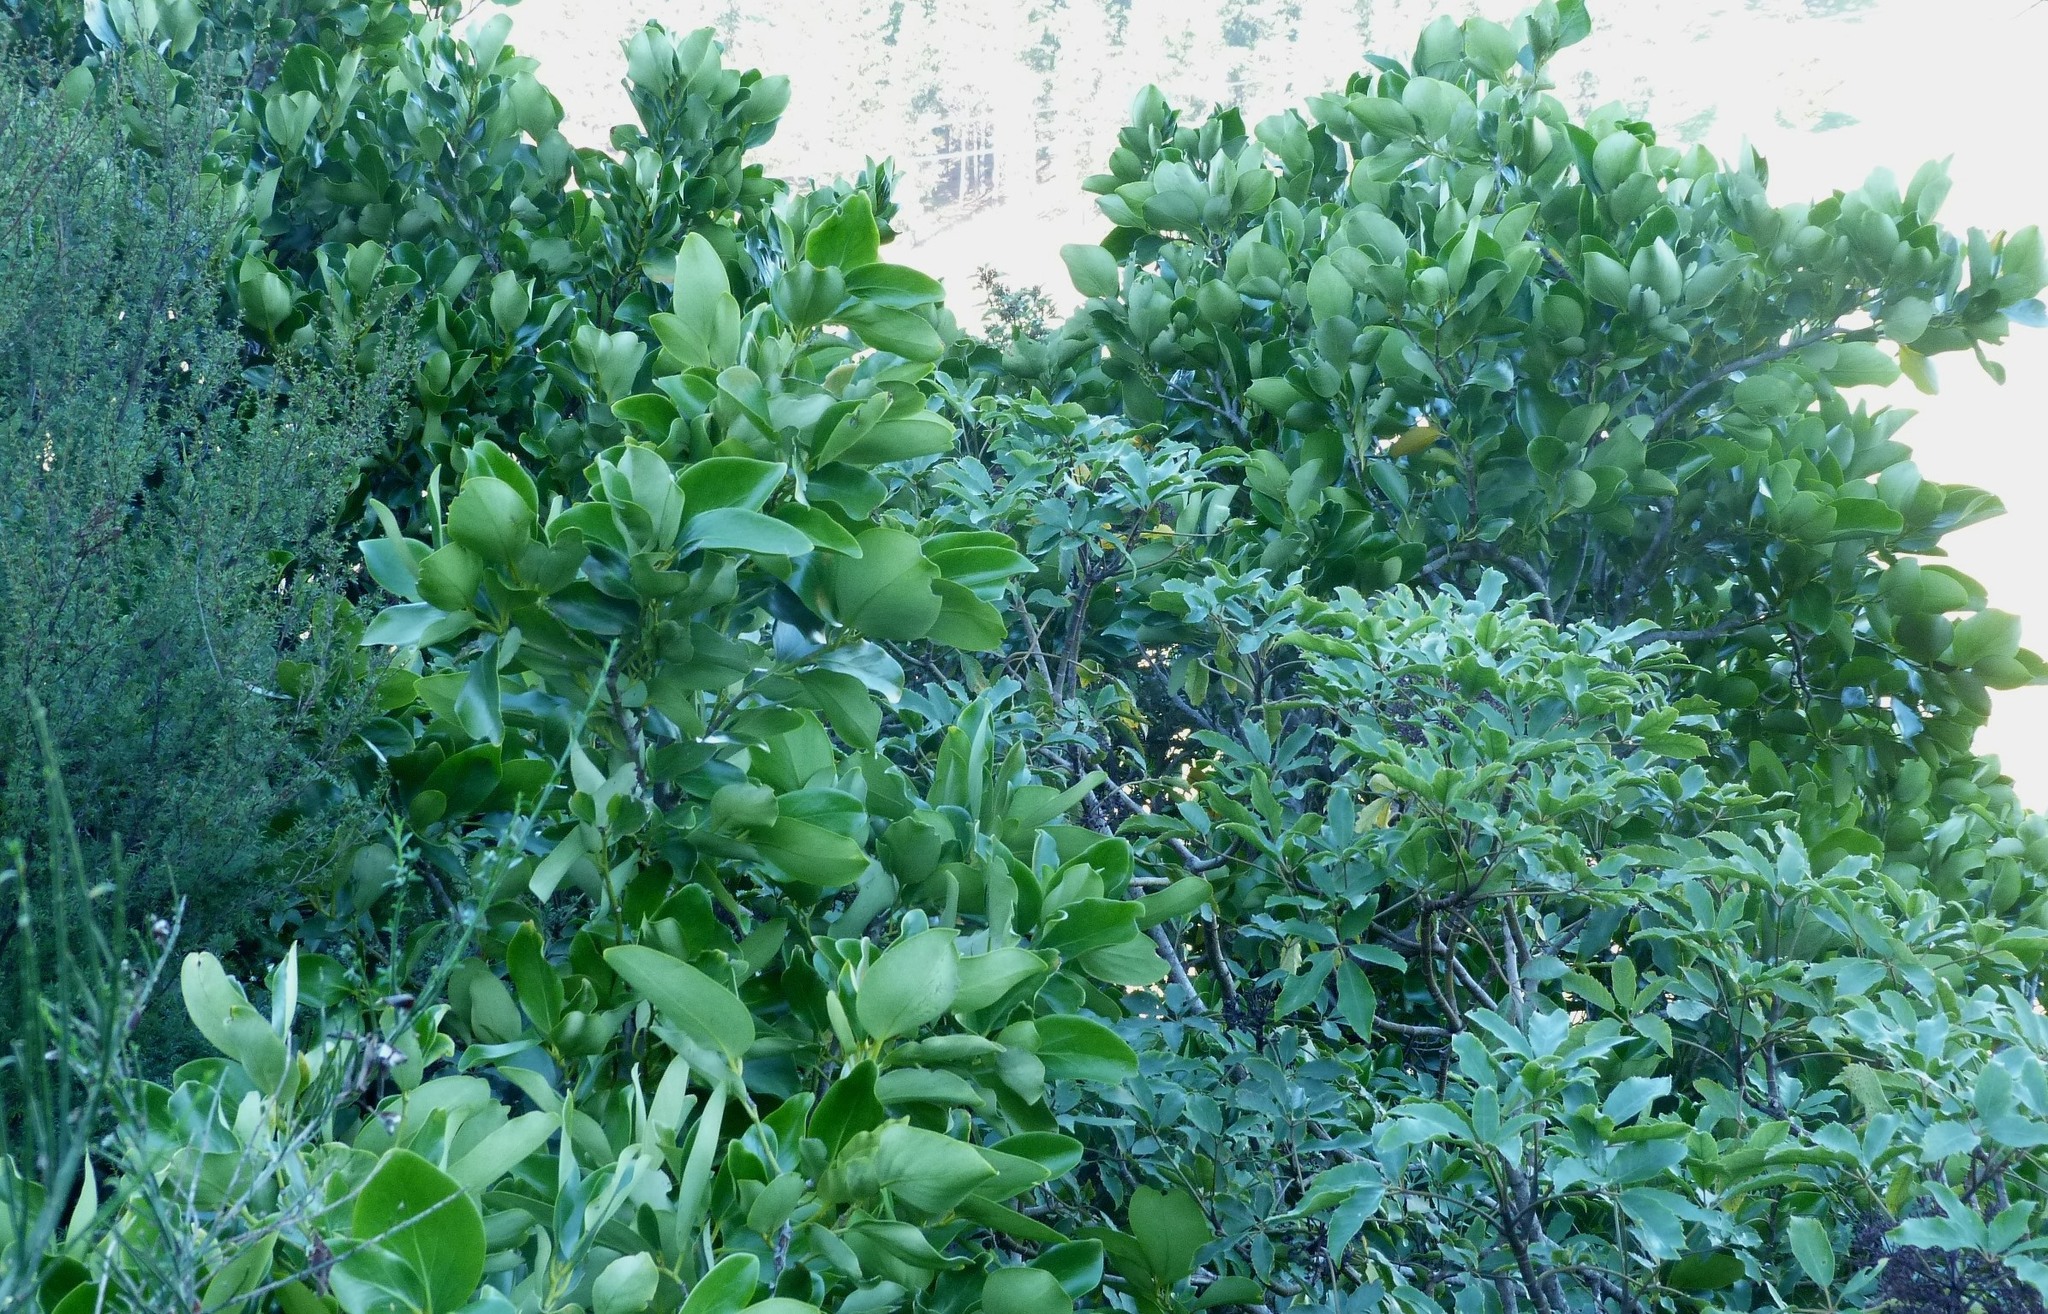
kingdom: Plantae
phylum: Tracheophyta
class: Magnoliopsida
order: Apiales
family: Griseliniaceae
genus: Griselinia
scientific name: Griselinia lucida
